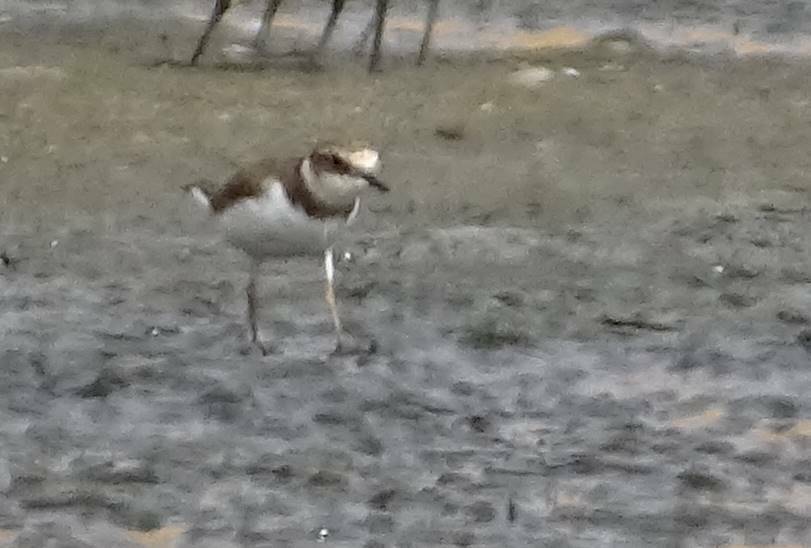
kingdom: Animalia
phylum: Chordata
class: Aves
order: Charadriiformes
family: Charadriidae
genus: Charadrius
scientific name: Charadrius dubius
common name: Little ringed plover
